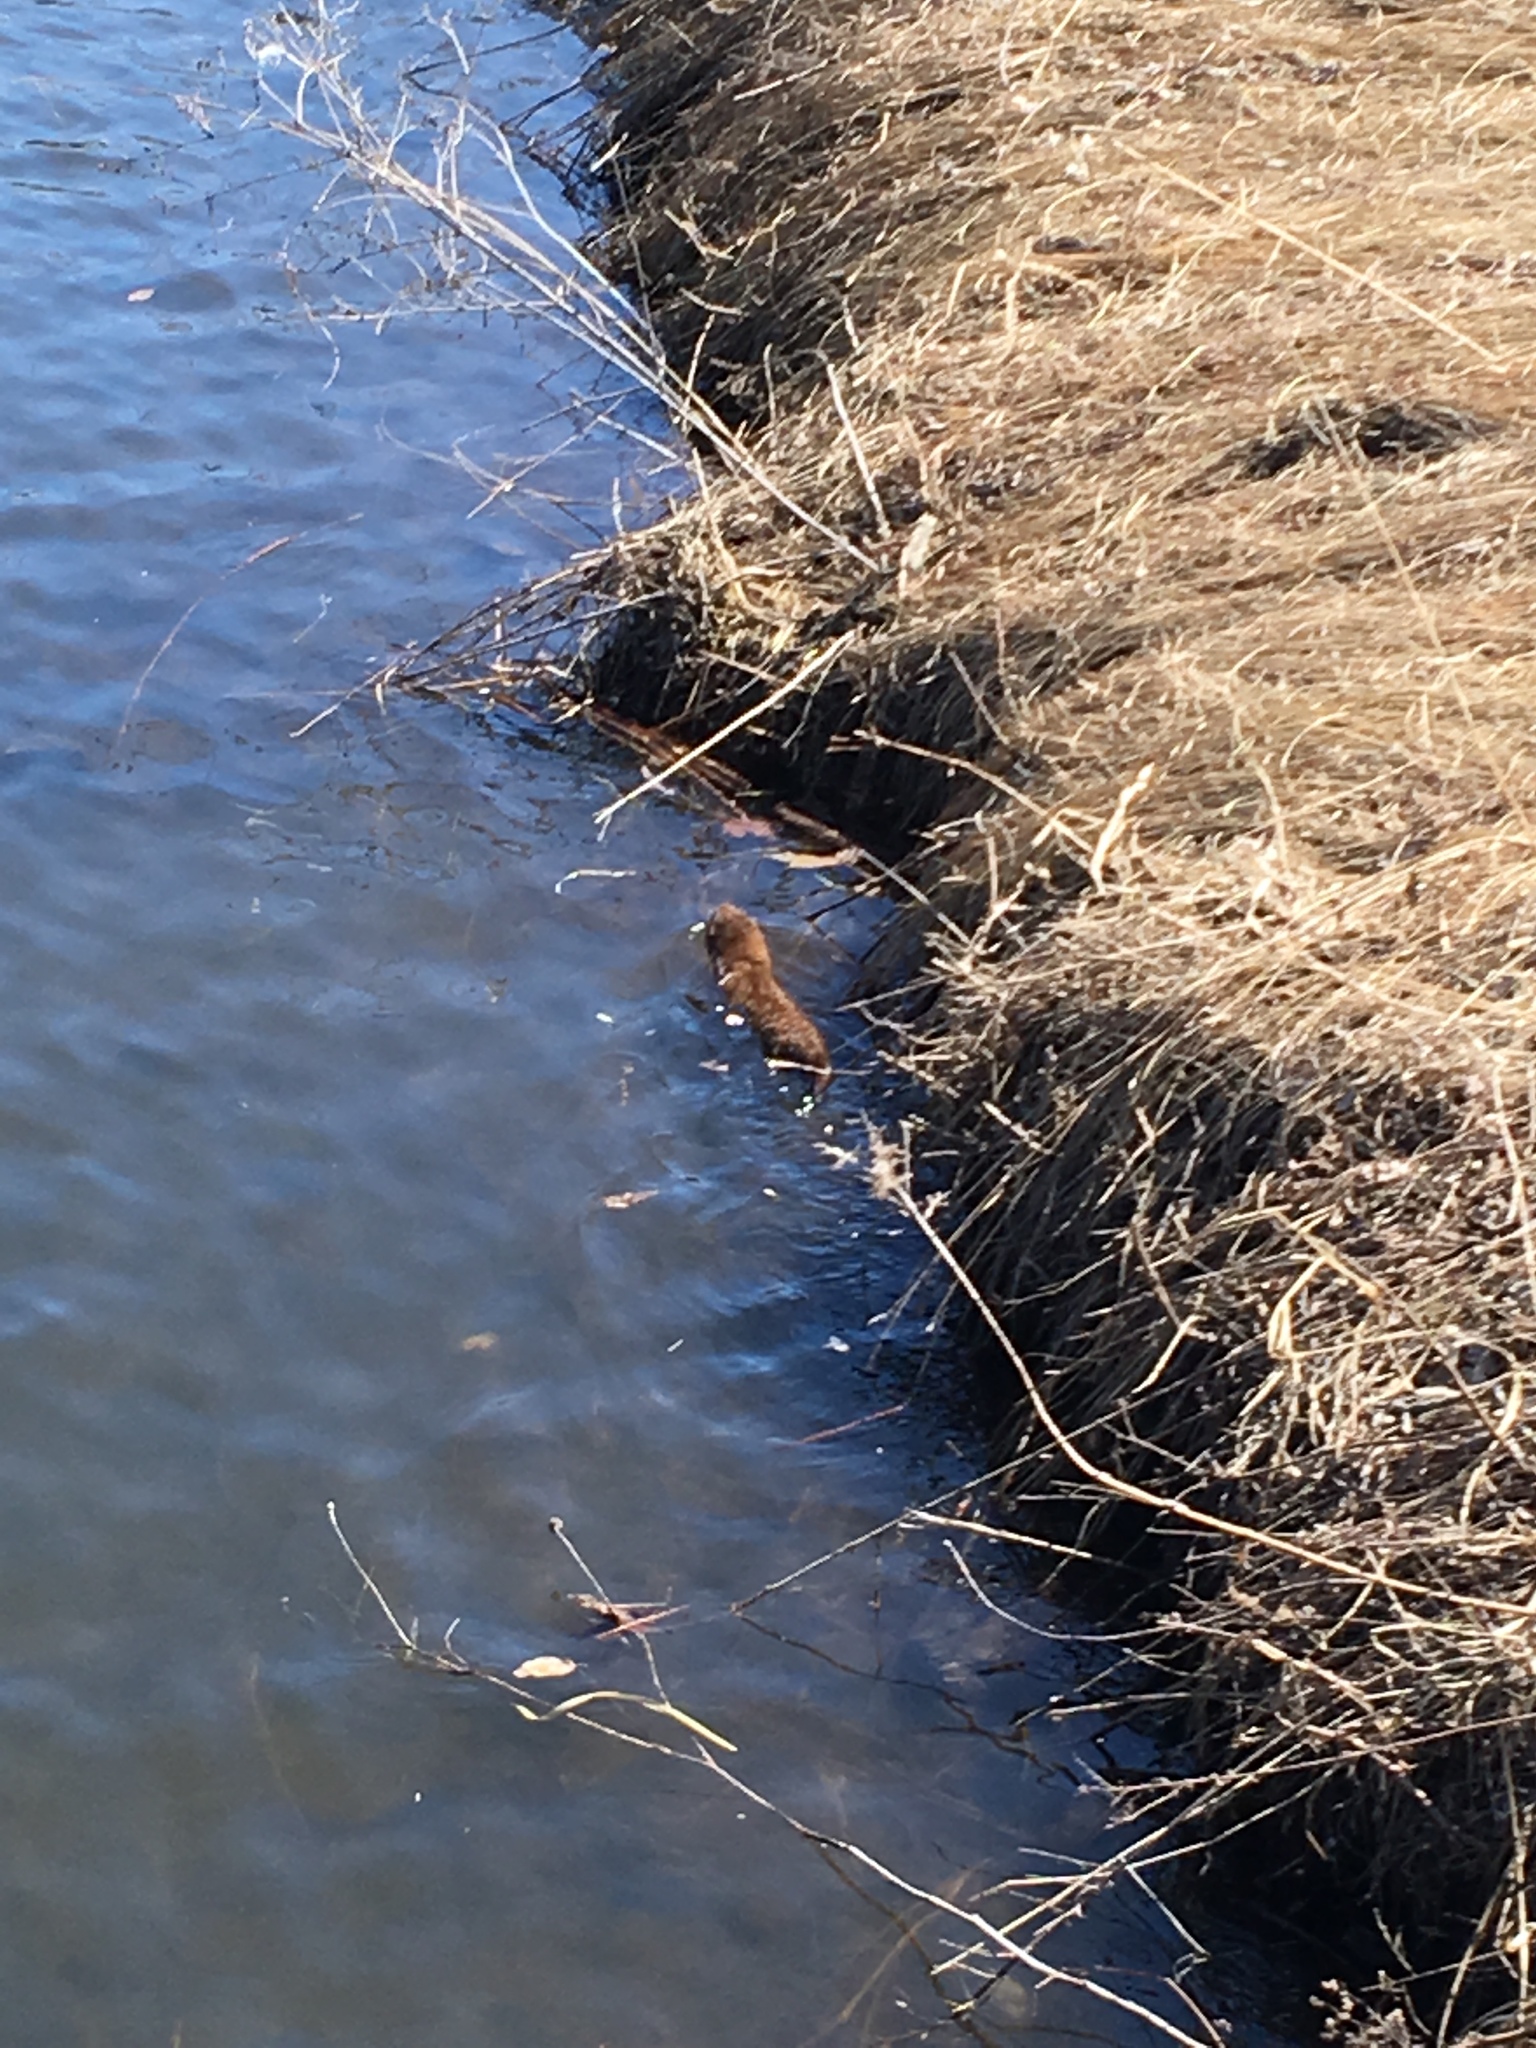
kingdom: Animalia
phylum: Chordata
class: Mammalia
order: Carnivora
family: Mustelidae
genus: Mustela
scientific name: Mustela
